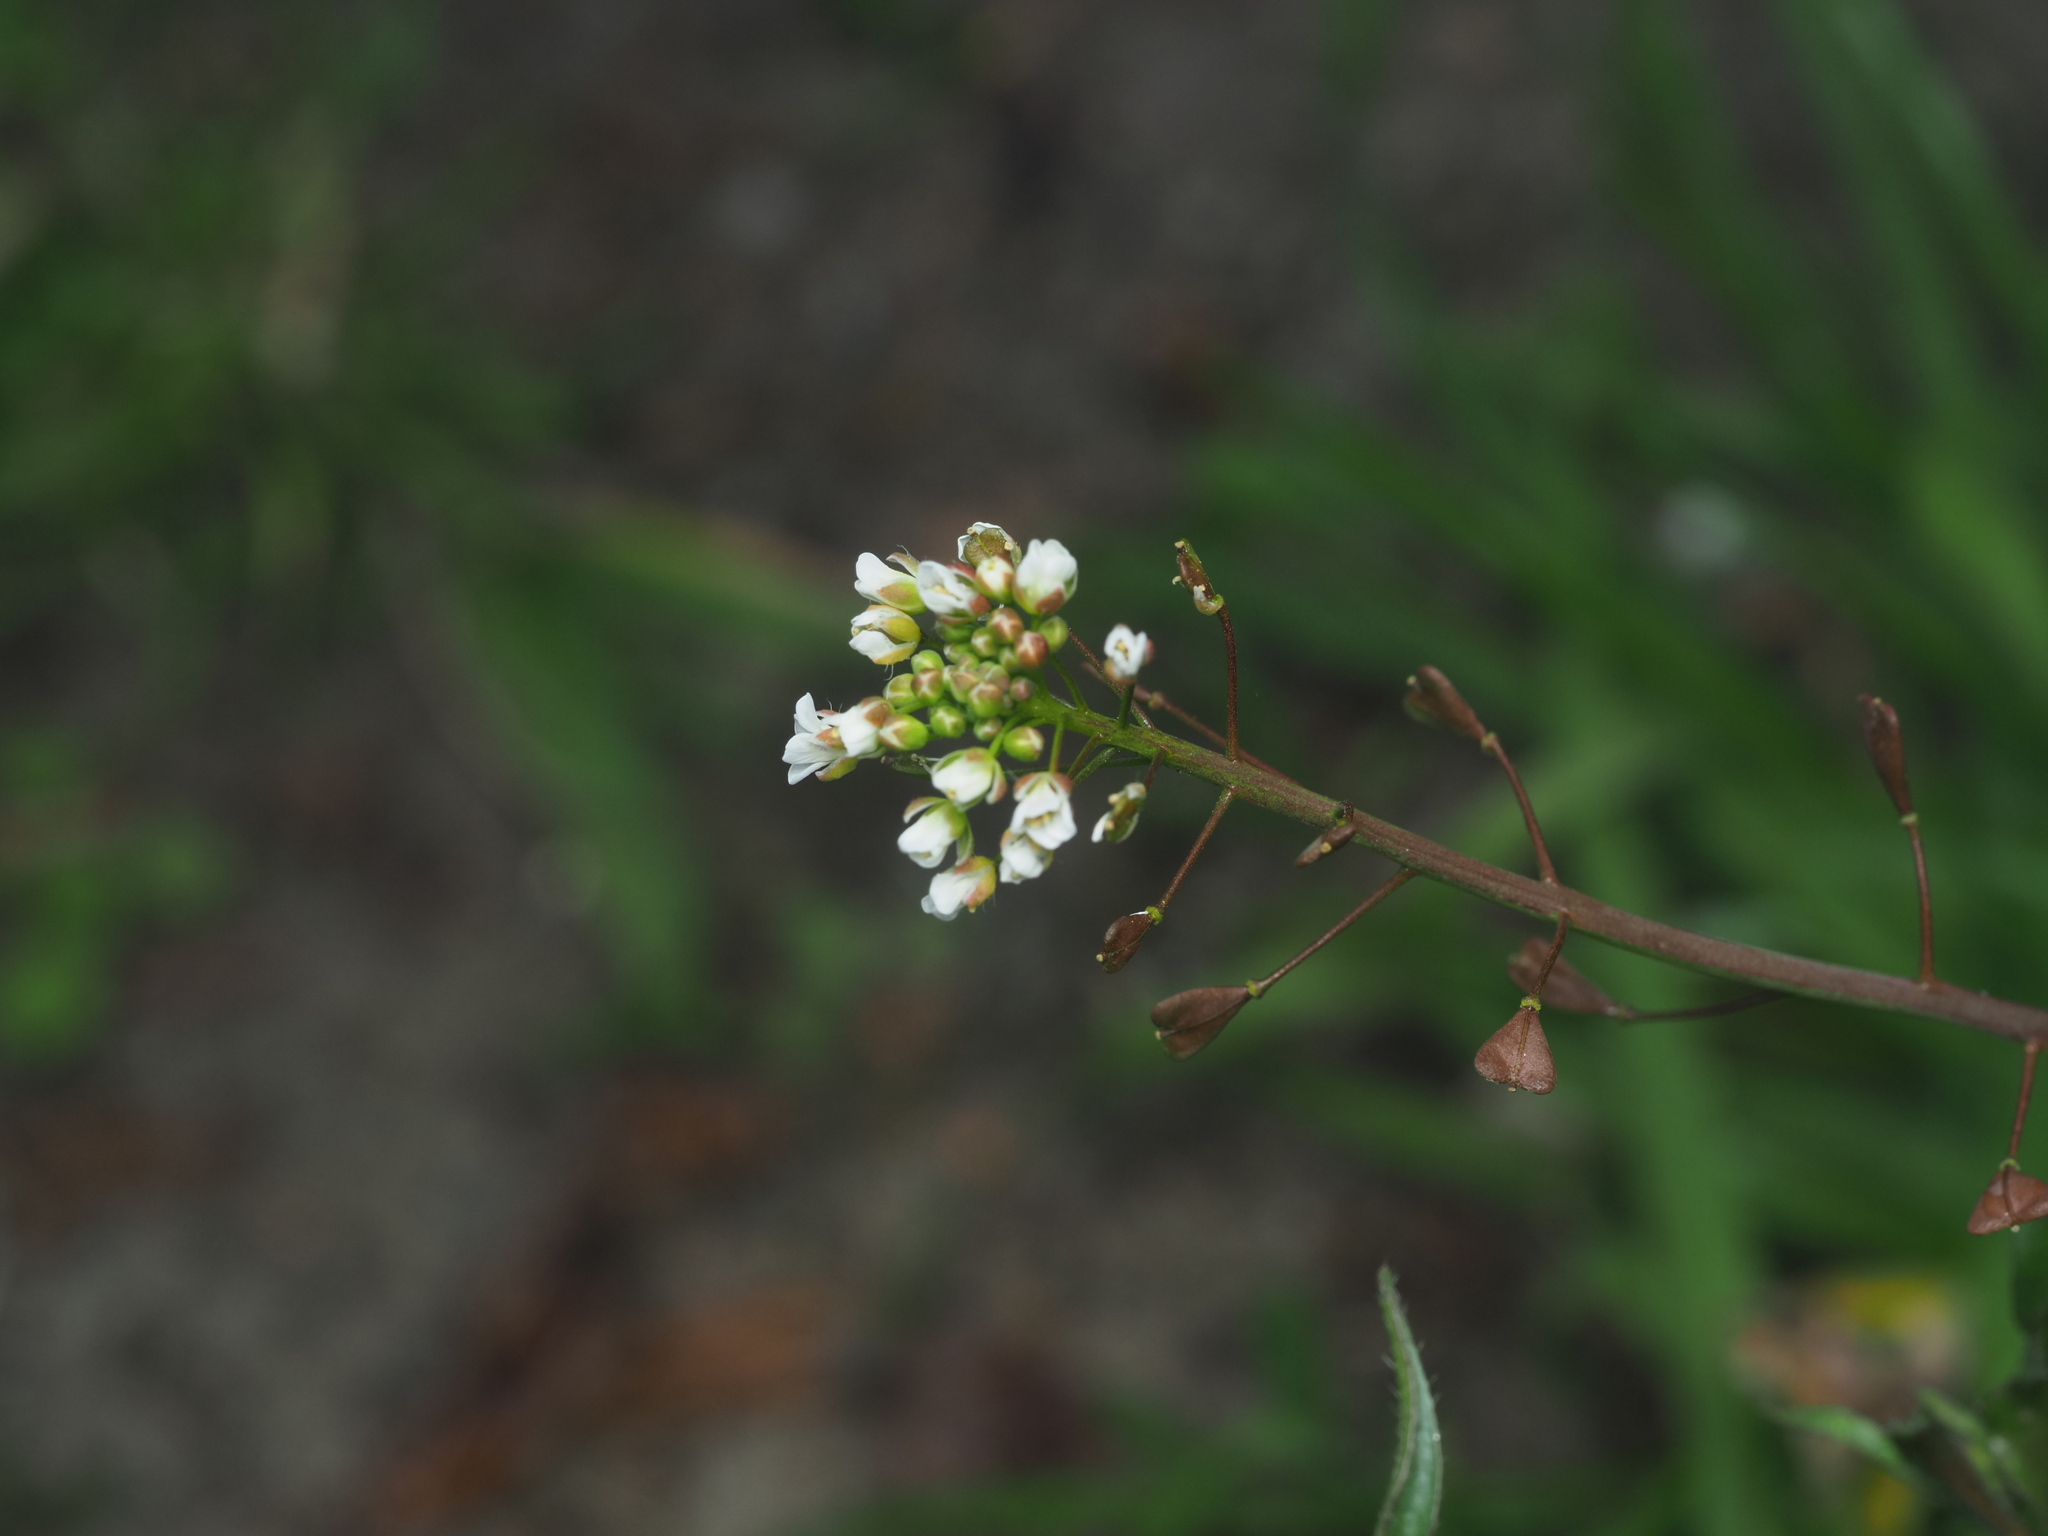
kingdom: Plantae
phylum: Tracheophyta
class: Magnoliopsida
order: Brassicales
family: Brassicaceae
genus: Capsella
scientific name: Capsella bursa-pastoris
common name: Shepherd's purse
